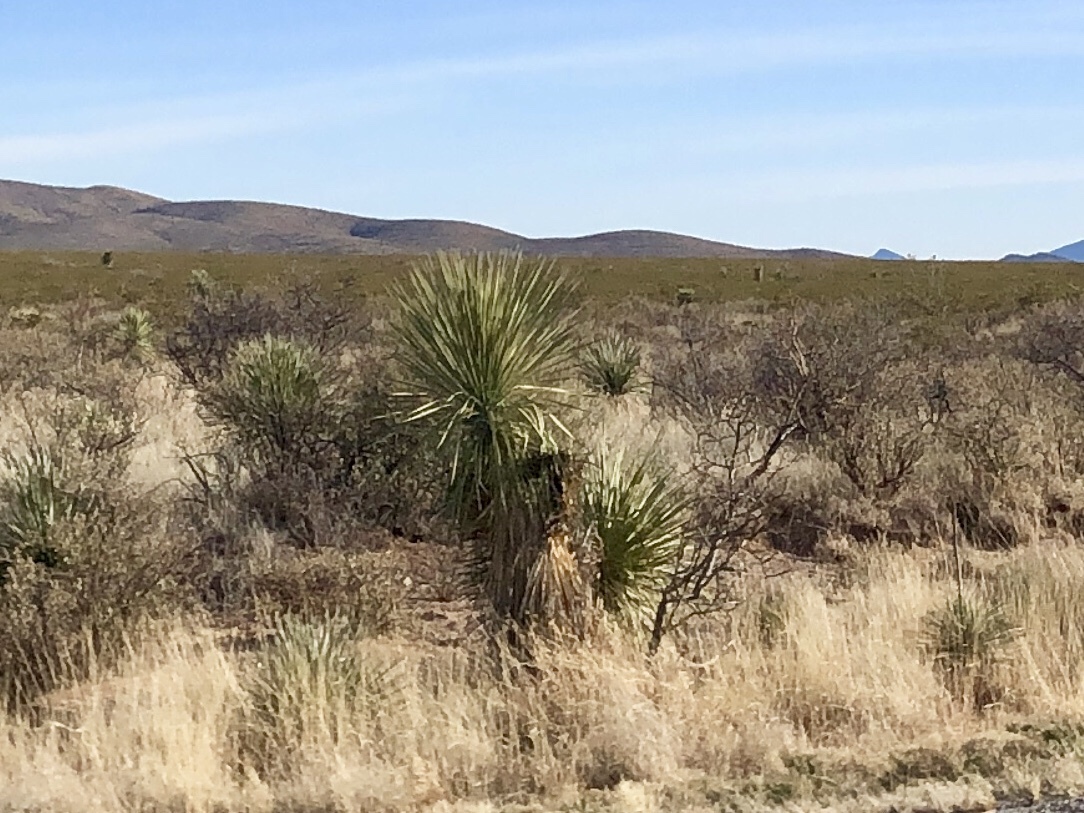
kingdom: Plantae
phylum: Tracheophyta
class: Liliopsida
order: Asparagales
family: Asparagaceae
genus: Yucca
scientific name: Yucca elata
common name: Palmella
